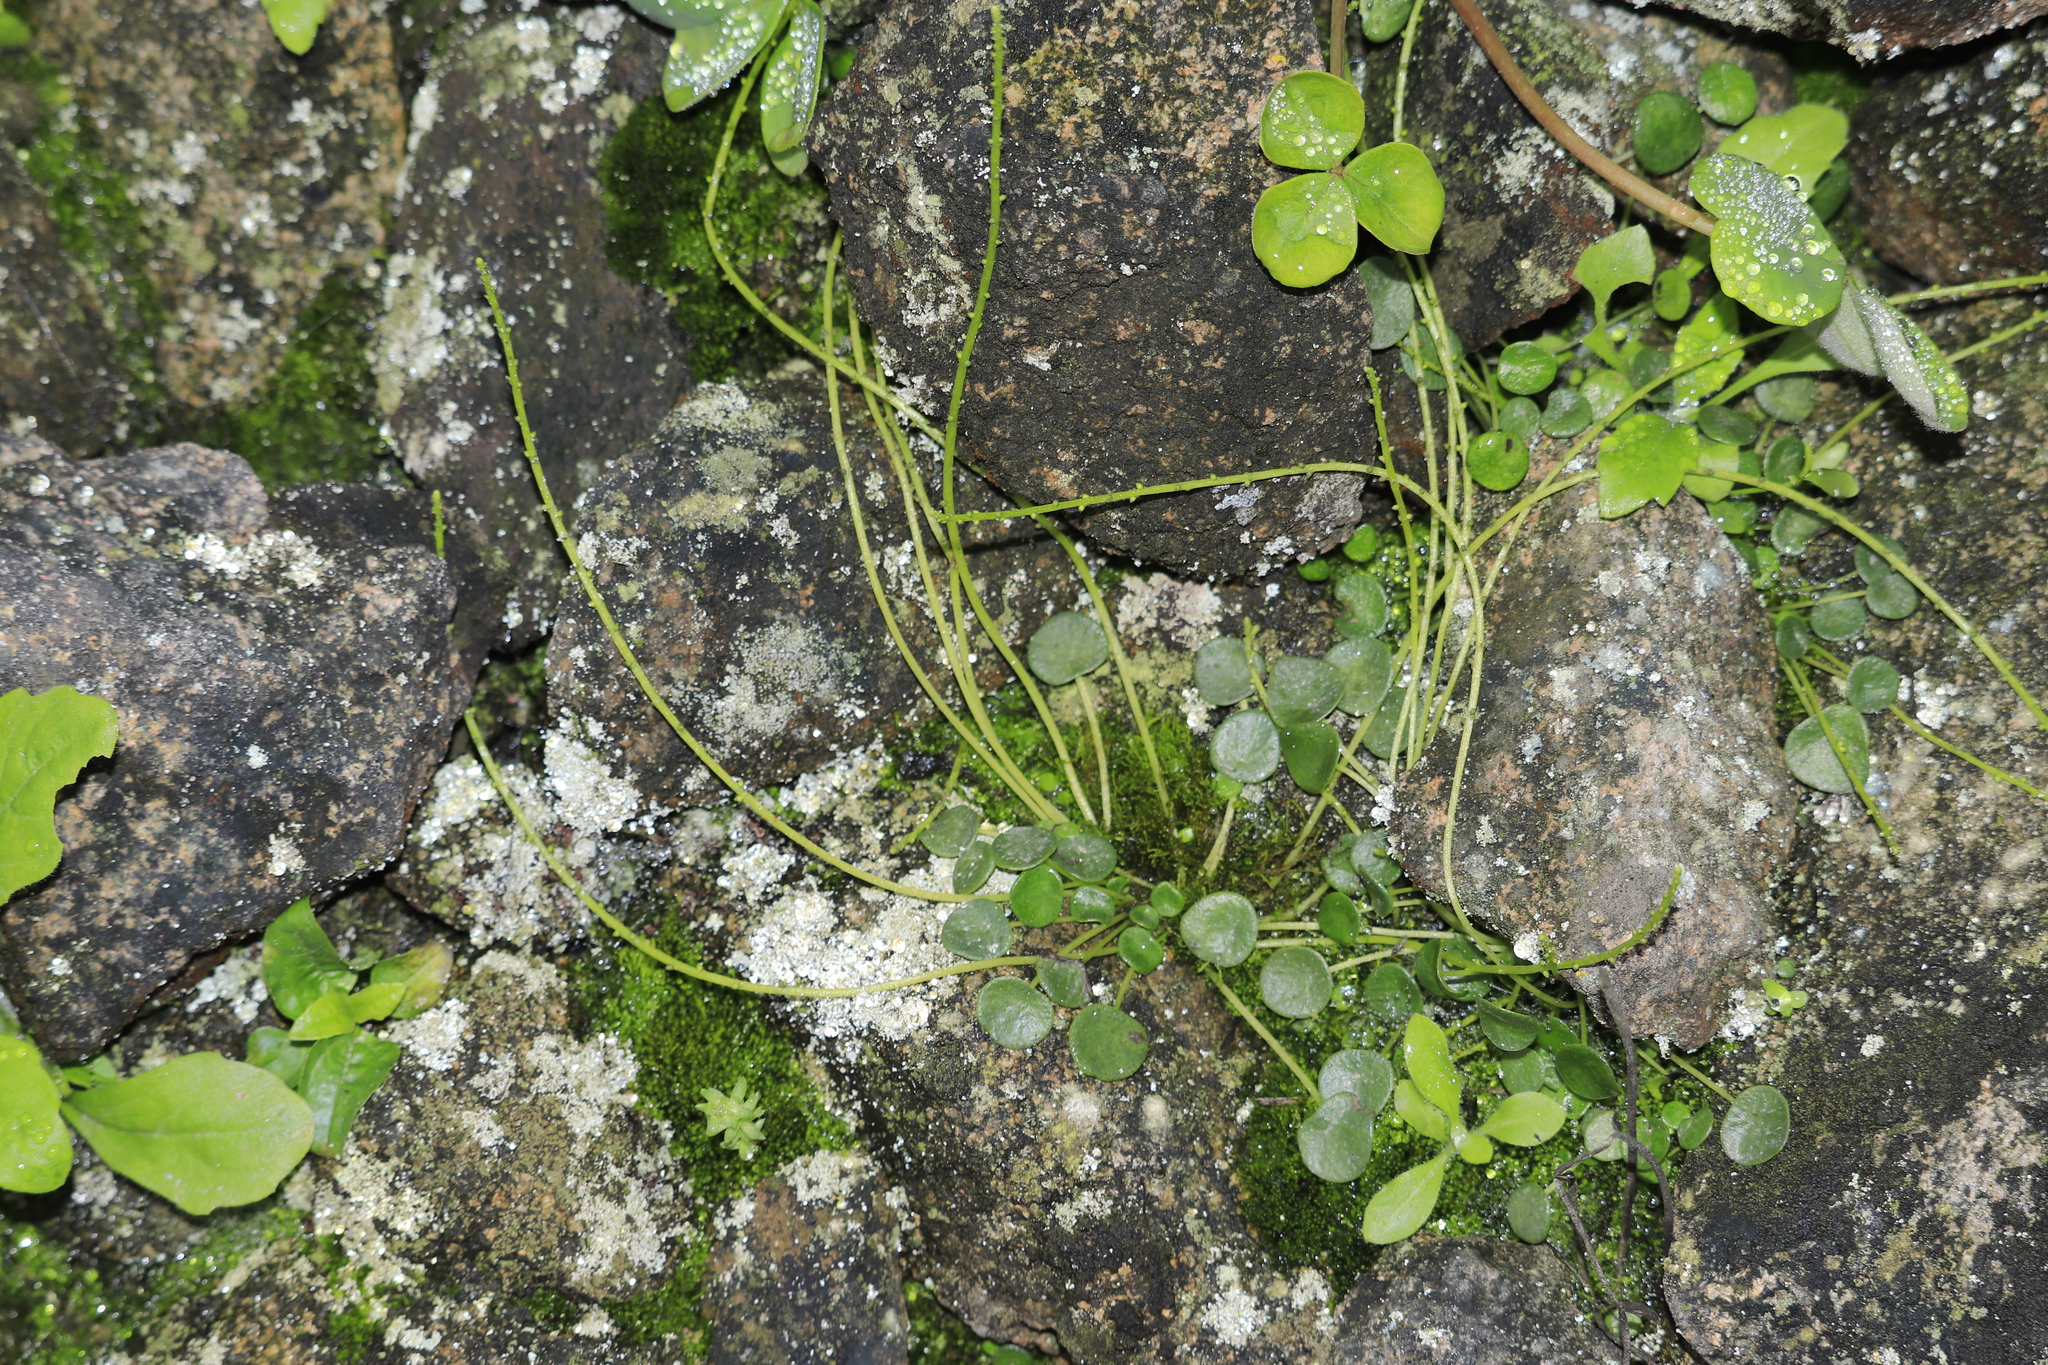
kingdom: Plantae
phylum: Tracheophyta
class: Magnoliopsida
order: Piperales
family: Piperaceae
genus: Peperomia
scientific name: Peperomia umbilicata
